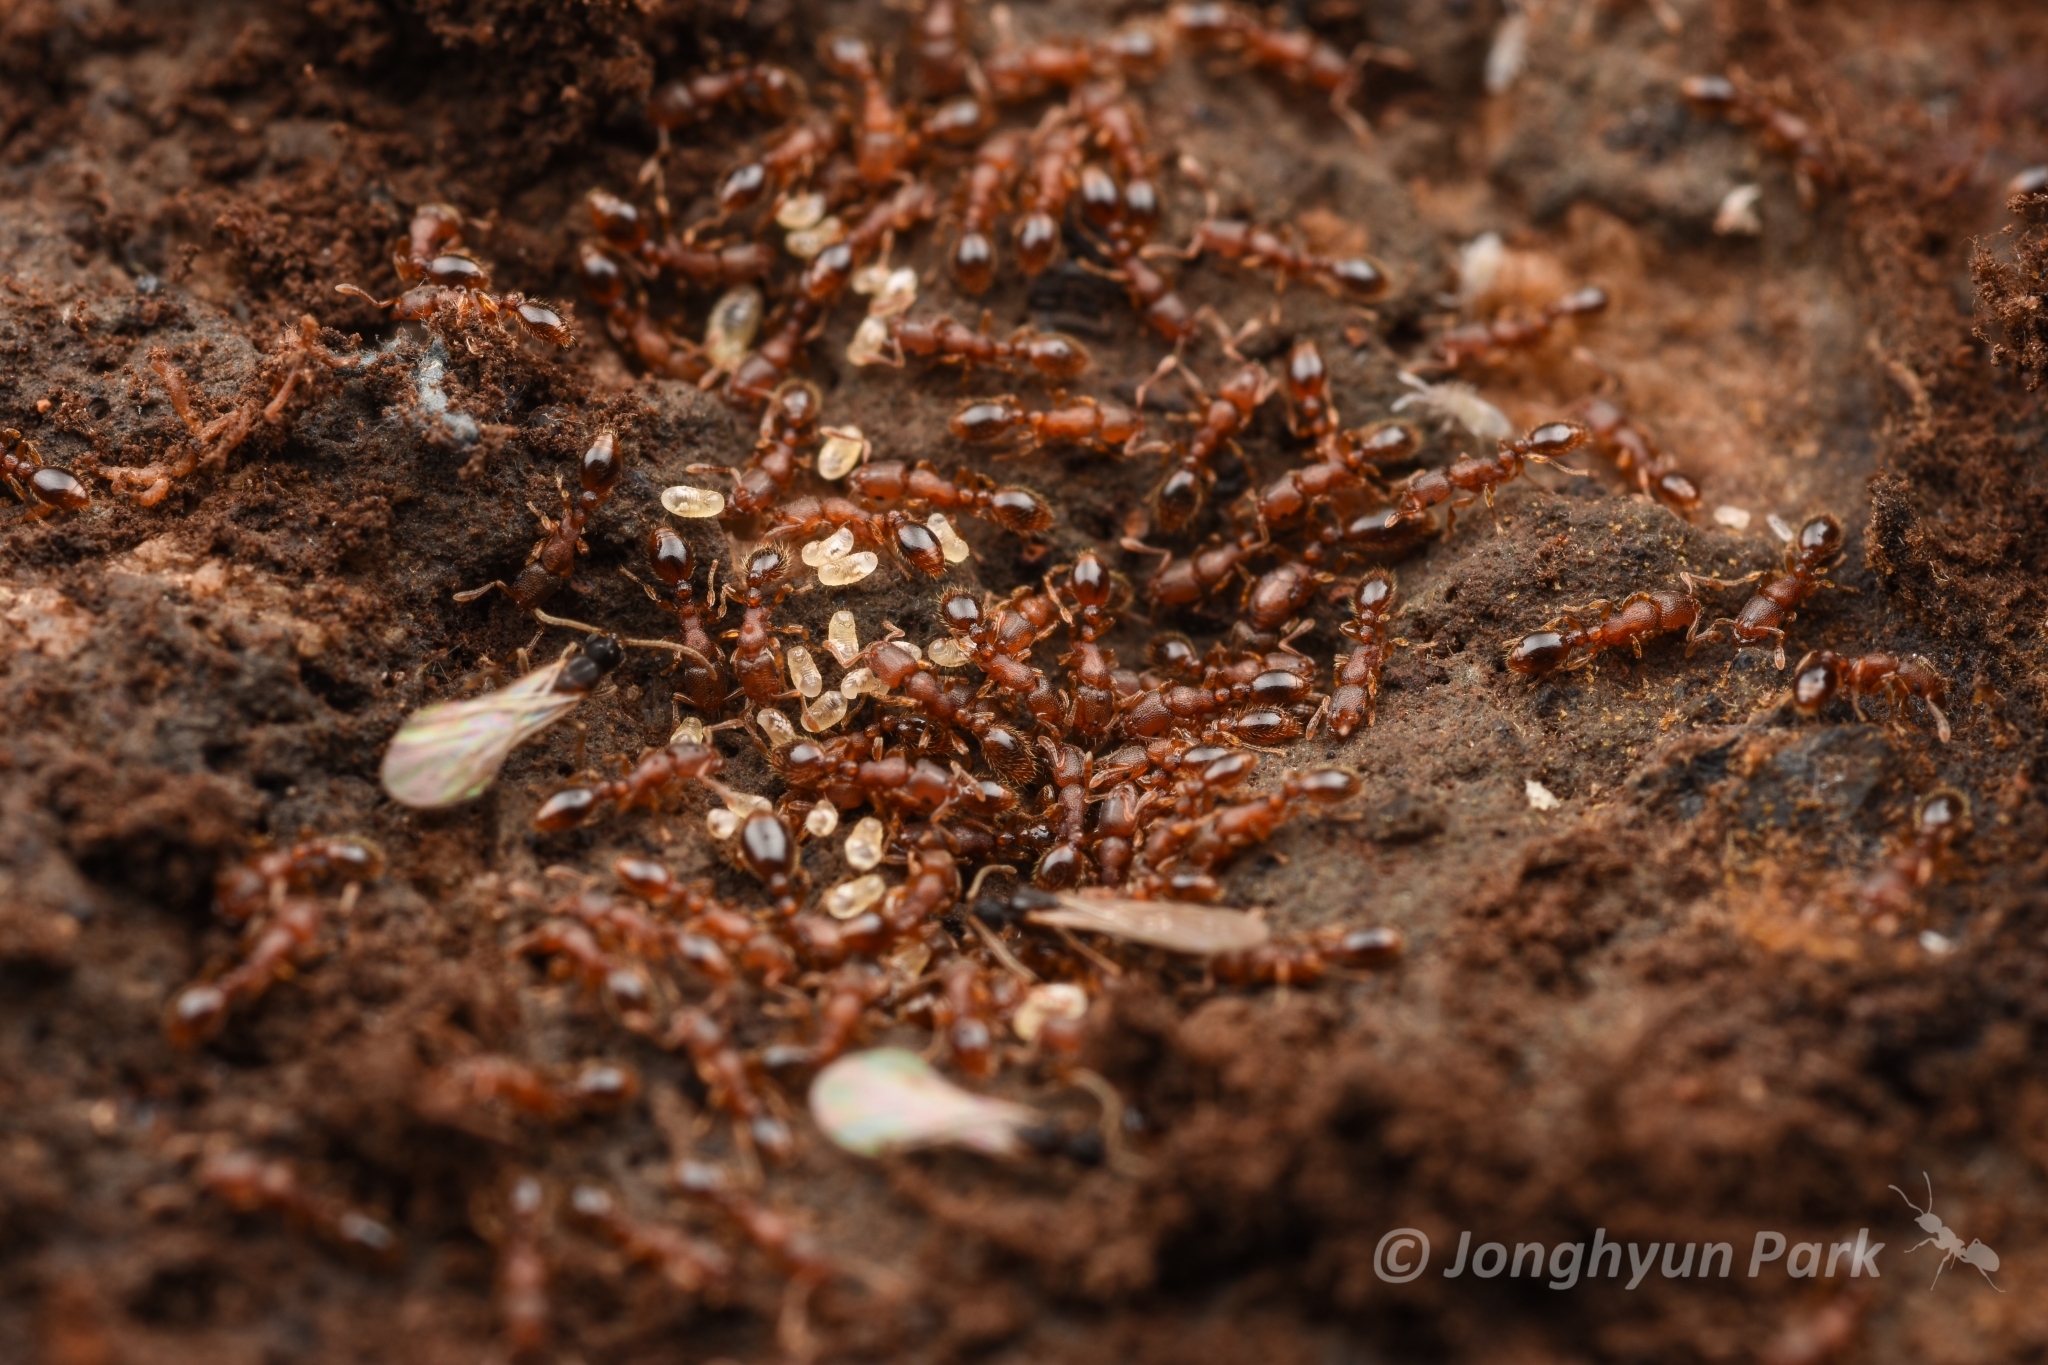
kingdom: Animalia
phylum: Arthropoda
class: Insecta
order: Hymenoptera
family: Formicidae
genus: Vollenhovia
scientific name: Vollenhovia emeryi
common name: Ant
